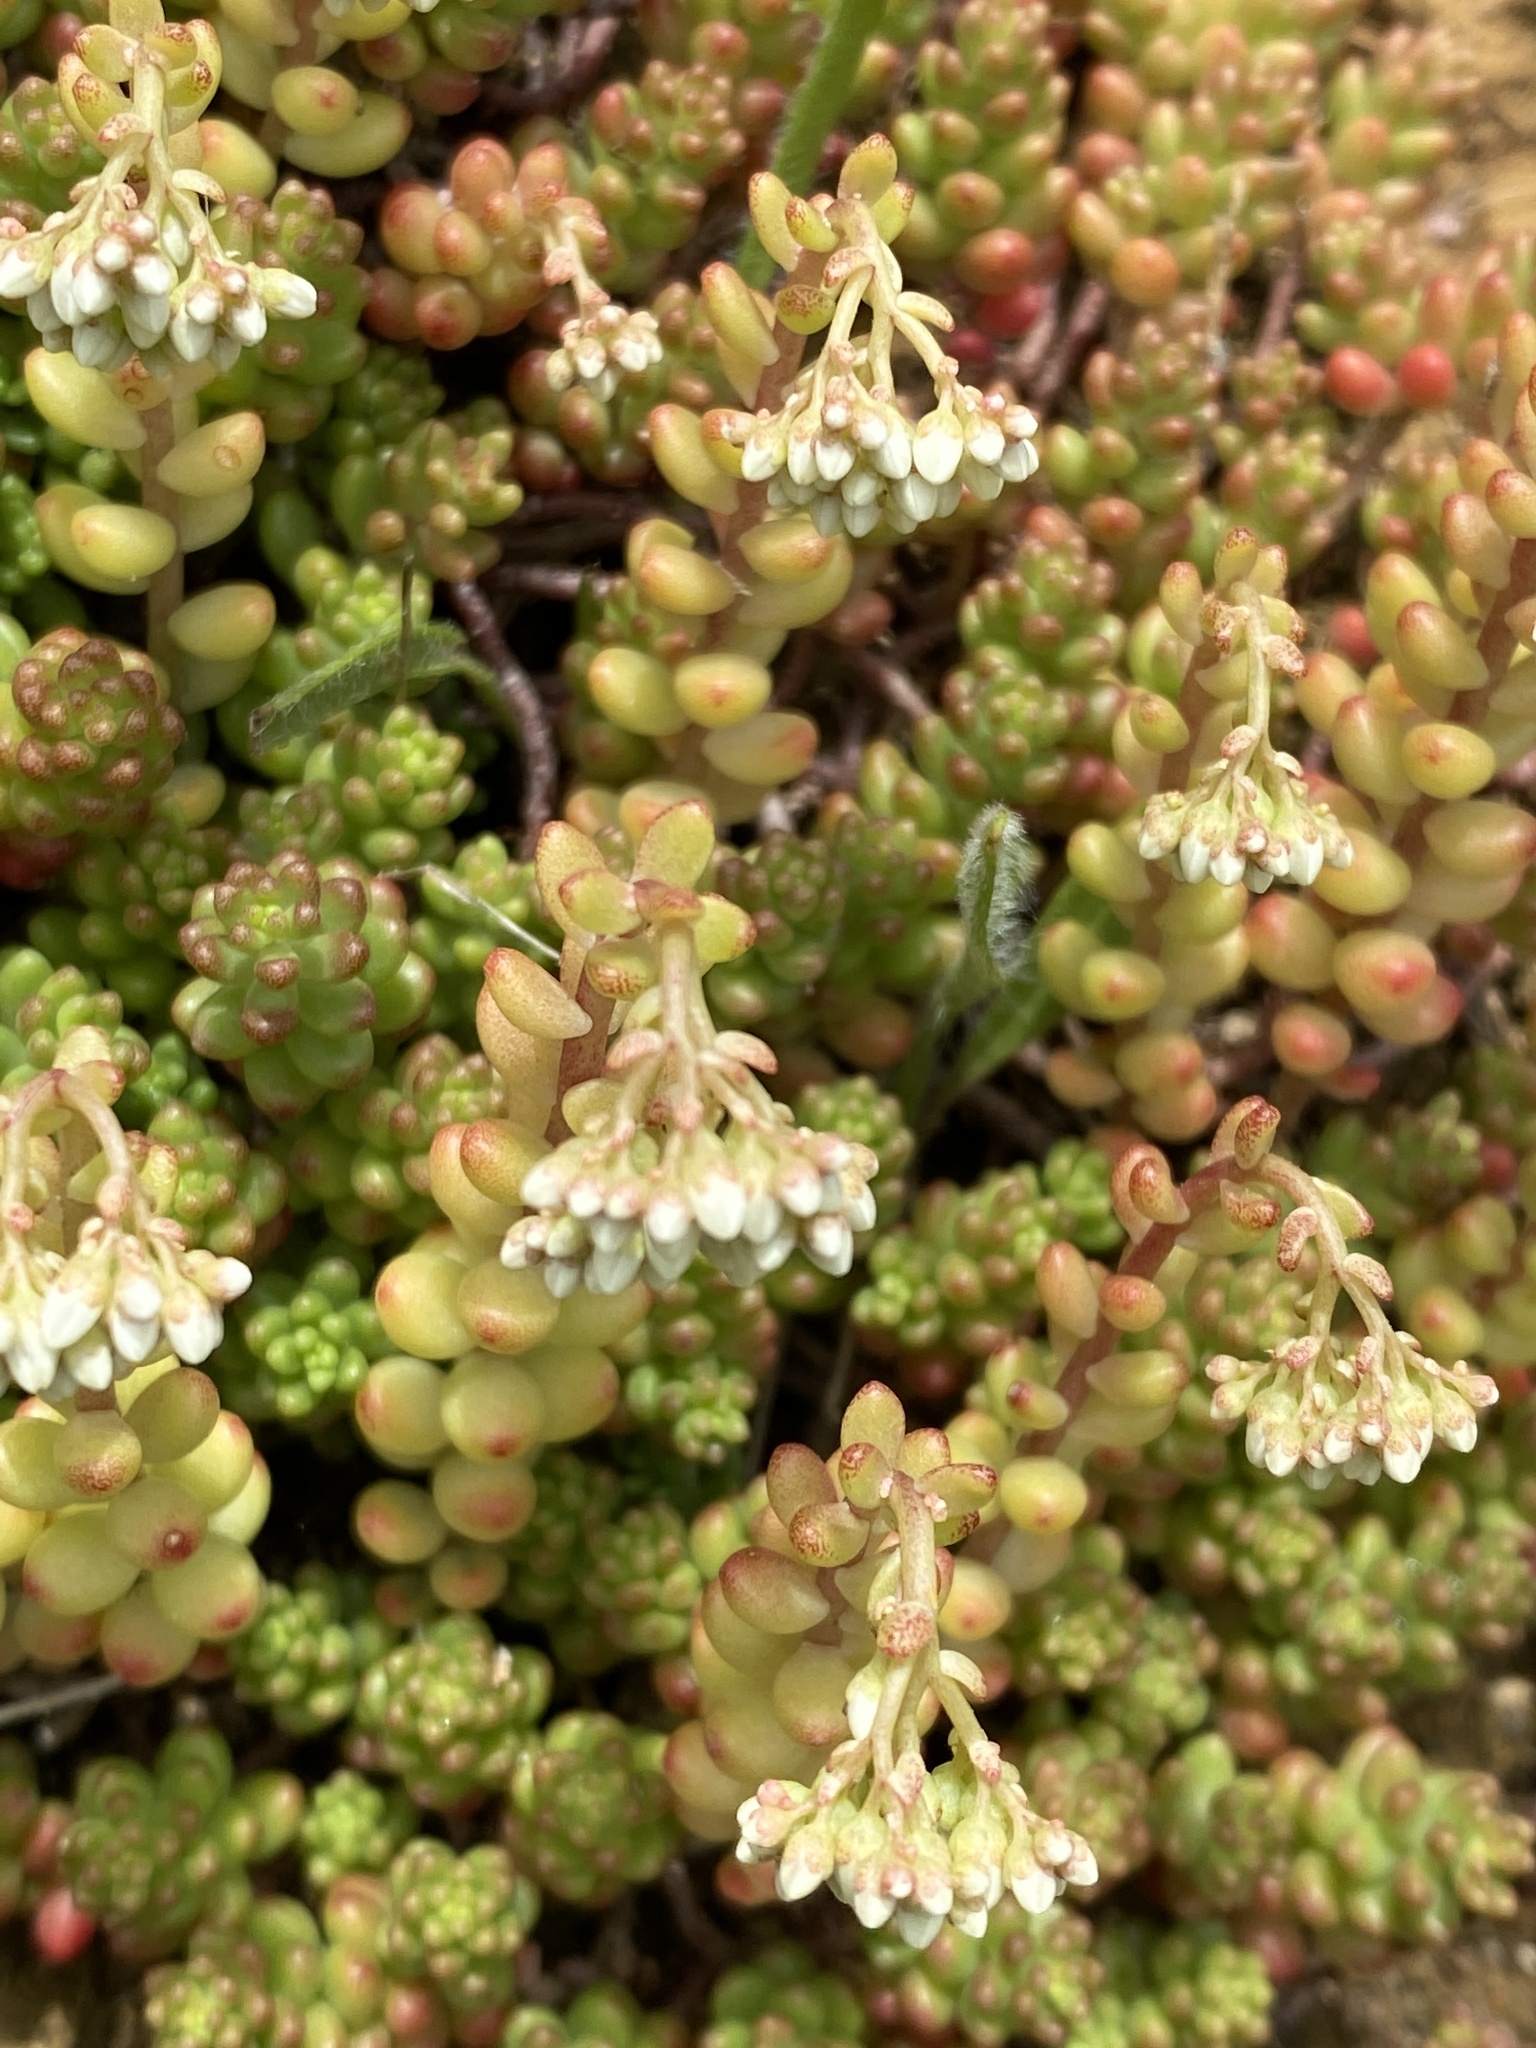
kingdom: Plantae
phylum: Tracheophyta
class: Magnoliopsida
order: Saxifragales
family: Crassulaceae
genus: Sedum
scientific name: Sedum album
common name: White stonecrop
